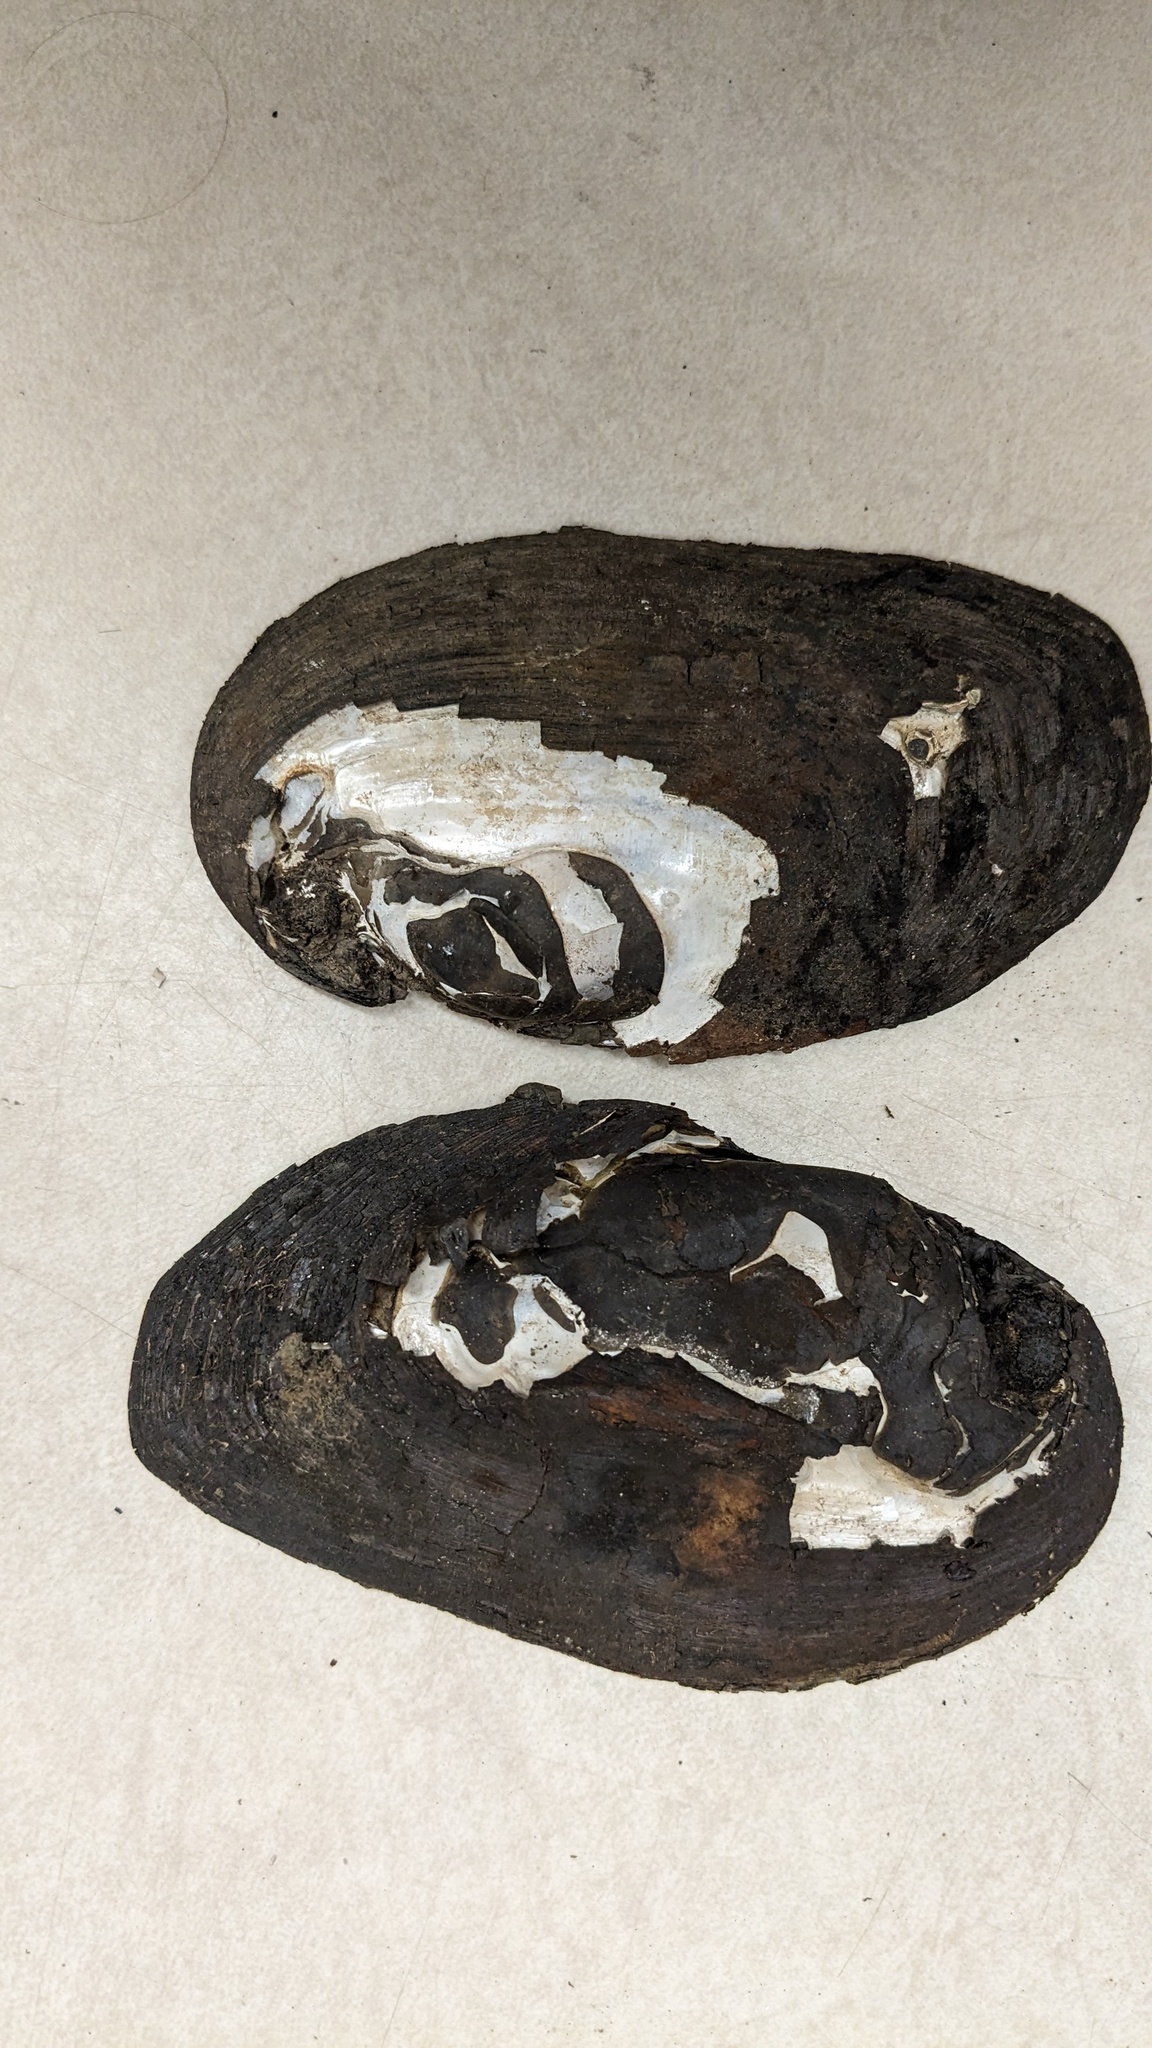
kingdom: Animalia
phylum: Mollusca
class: Bivalvia
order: Unionida
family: Unionidae
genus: Elliptio
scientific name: Elliptio complanata
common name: Eastern elliptio
